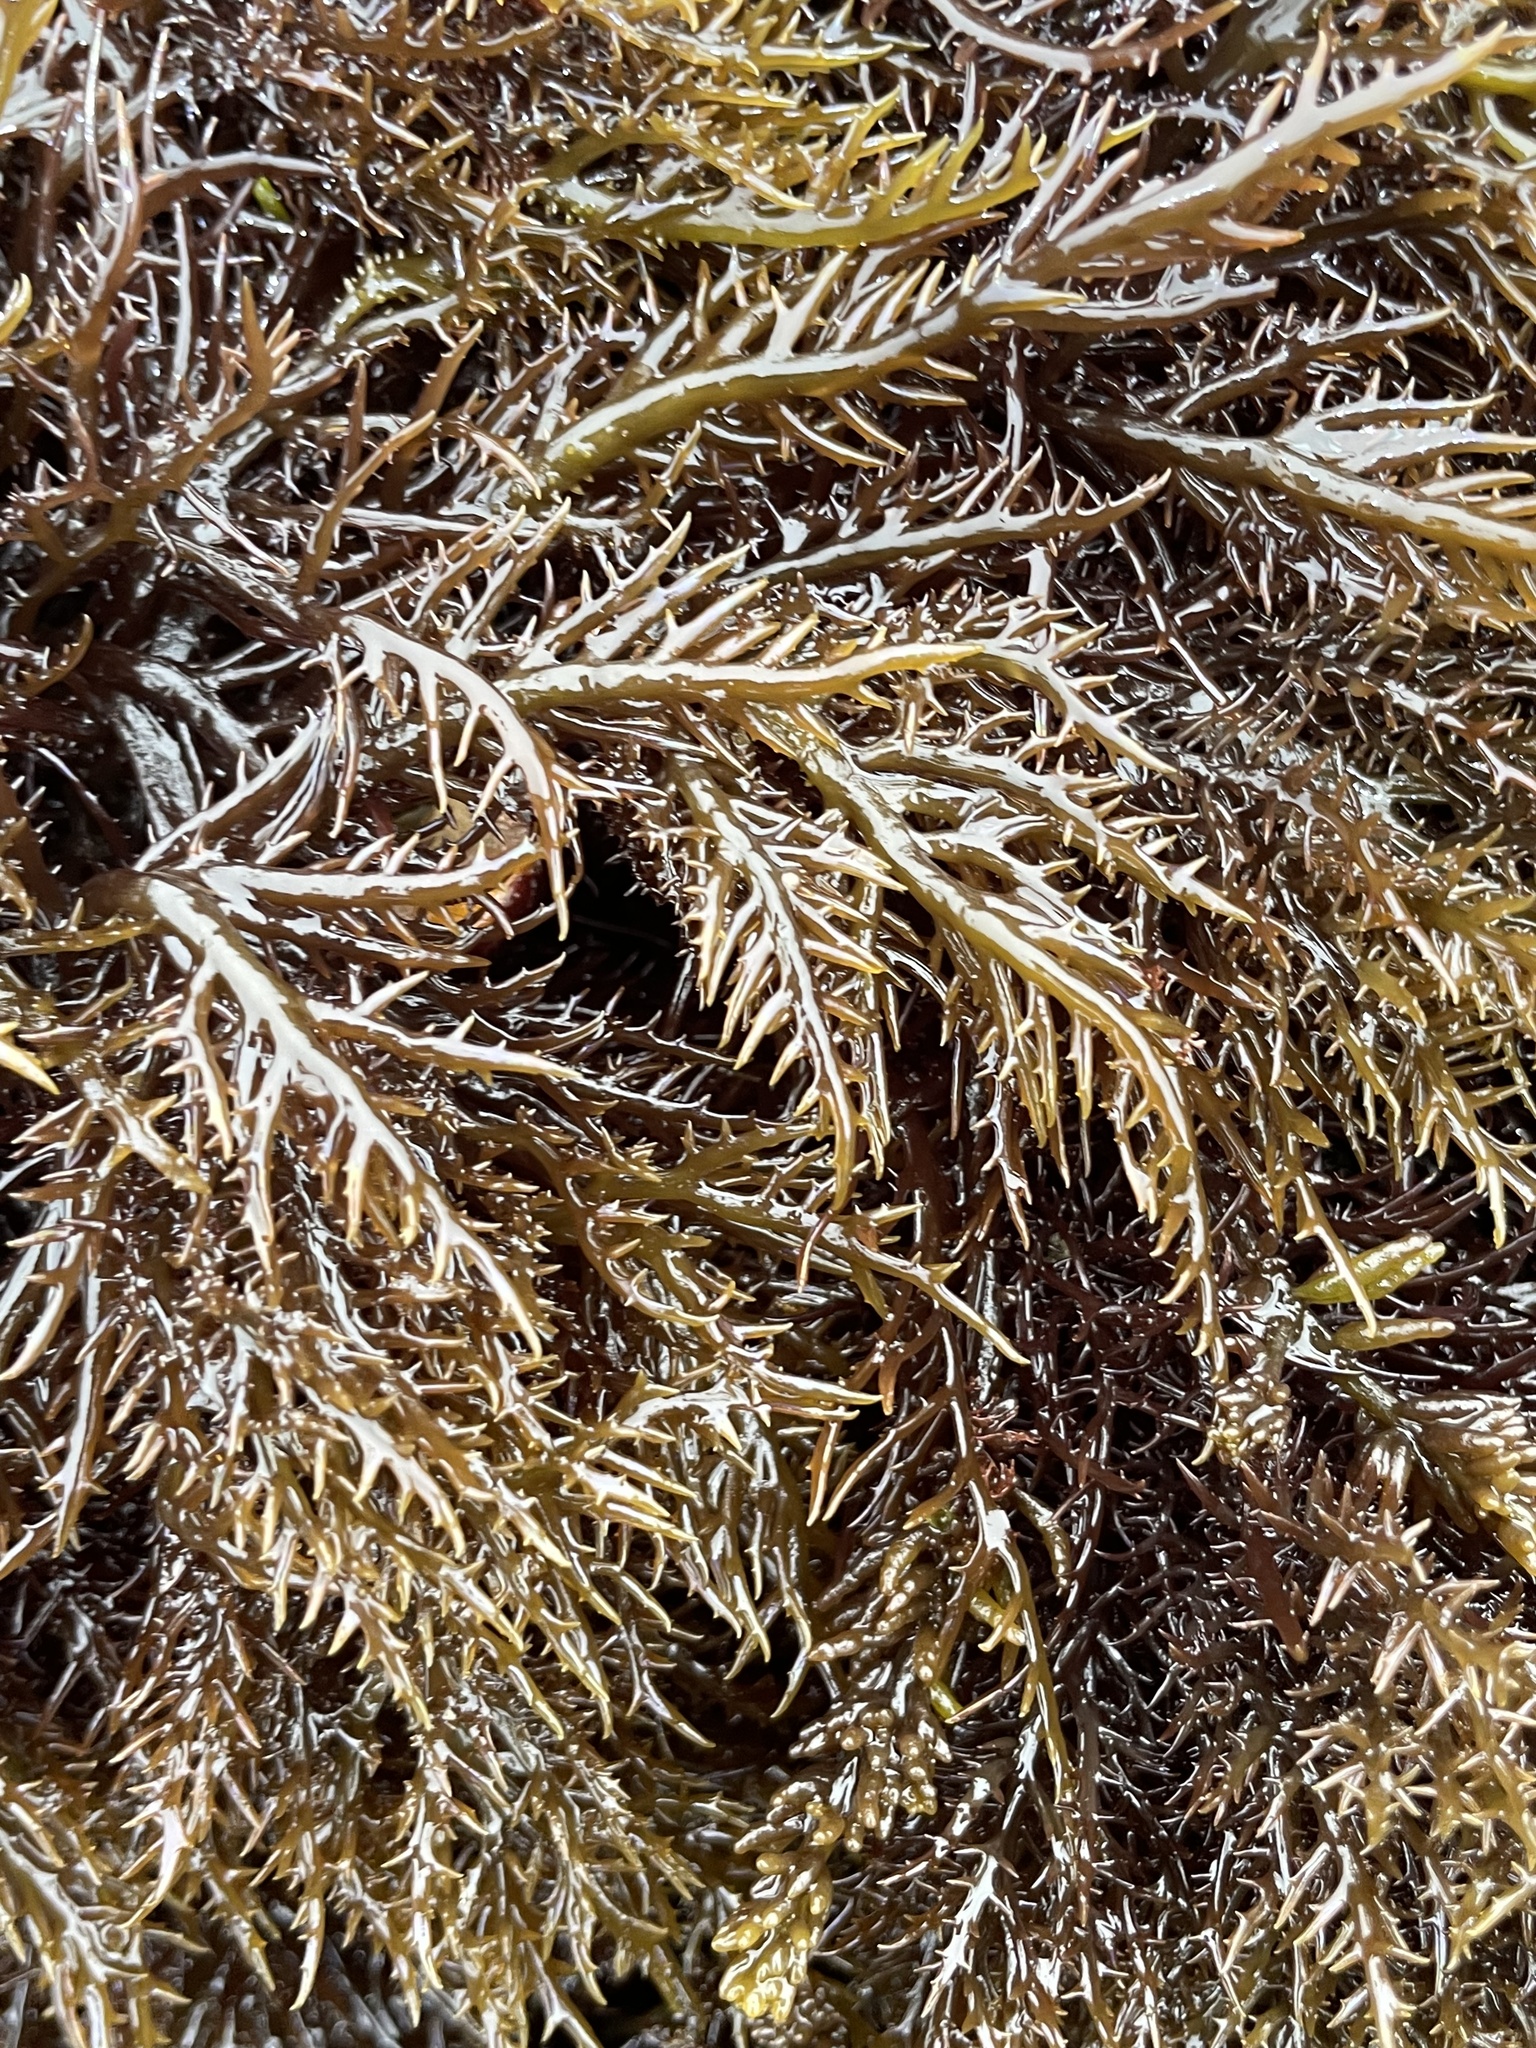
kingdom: Plantae
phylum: Rhodophyta
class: Florideophyceae
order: Gigartinales
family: Gigartinaceae
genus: Chondracanthus
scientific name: Chondracanthus canaliculatus
